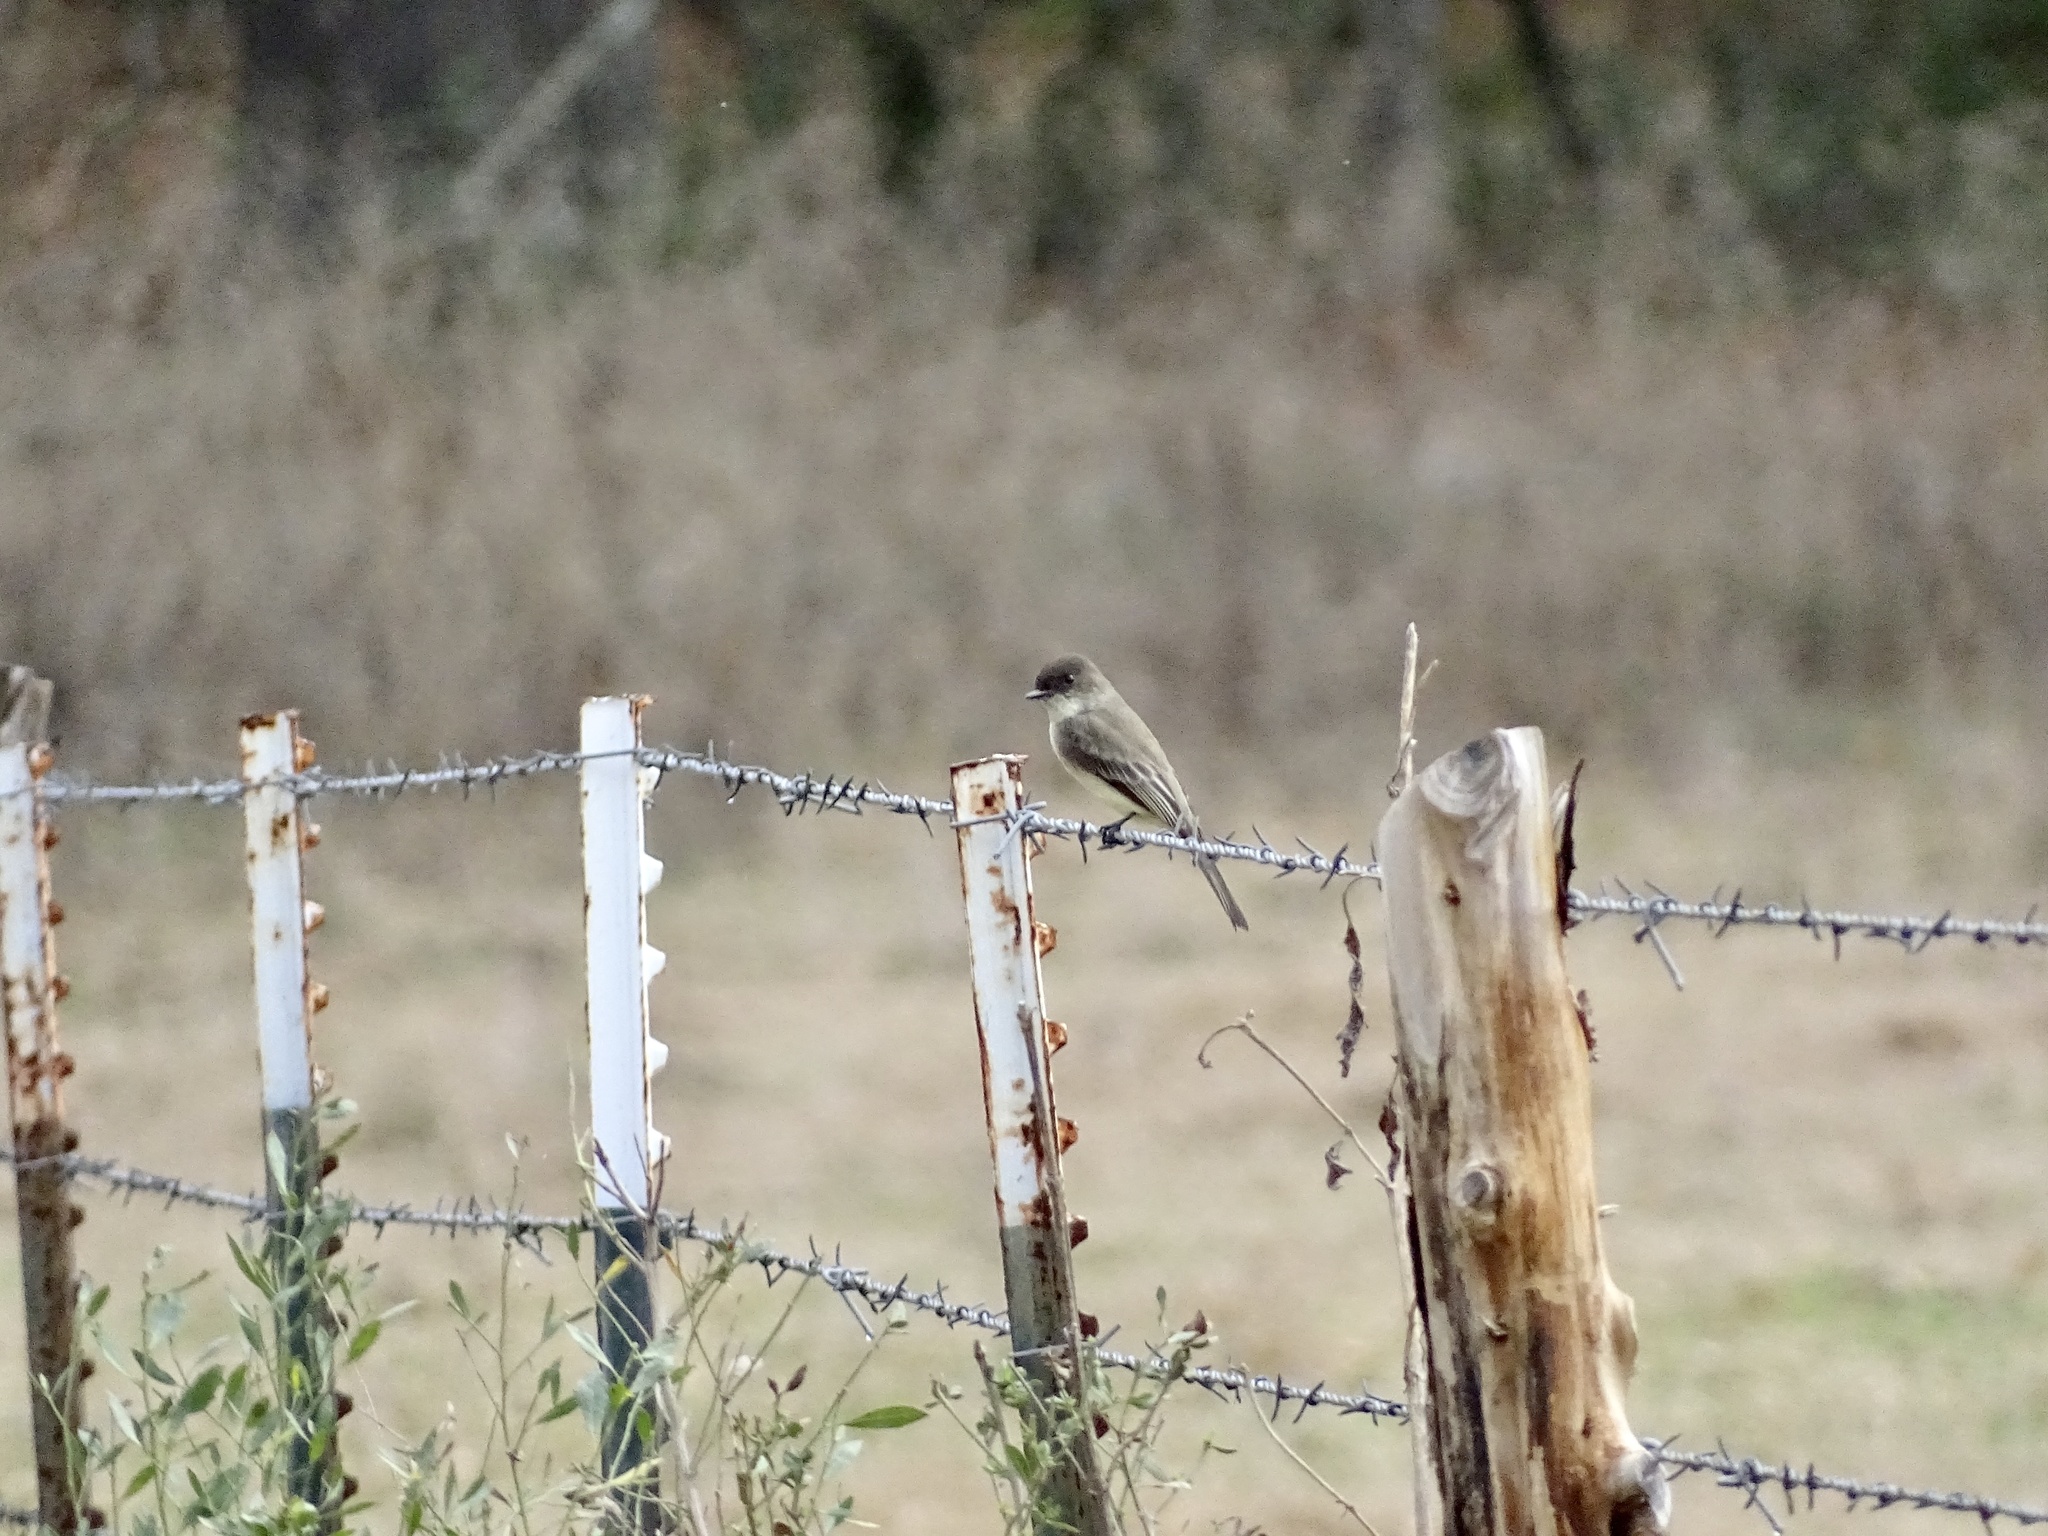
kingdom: Animalia
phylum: Chordata
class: Aves
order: Passeriformes
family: Tyrannidae
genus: Sayornis
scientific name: Sayornis phoebe
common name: Eastern phoebe
